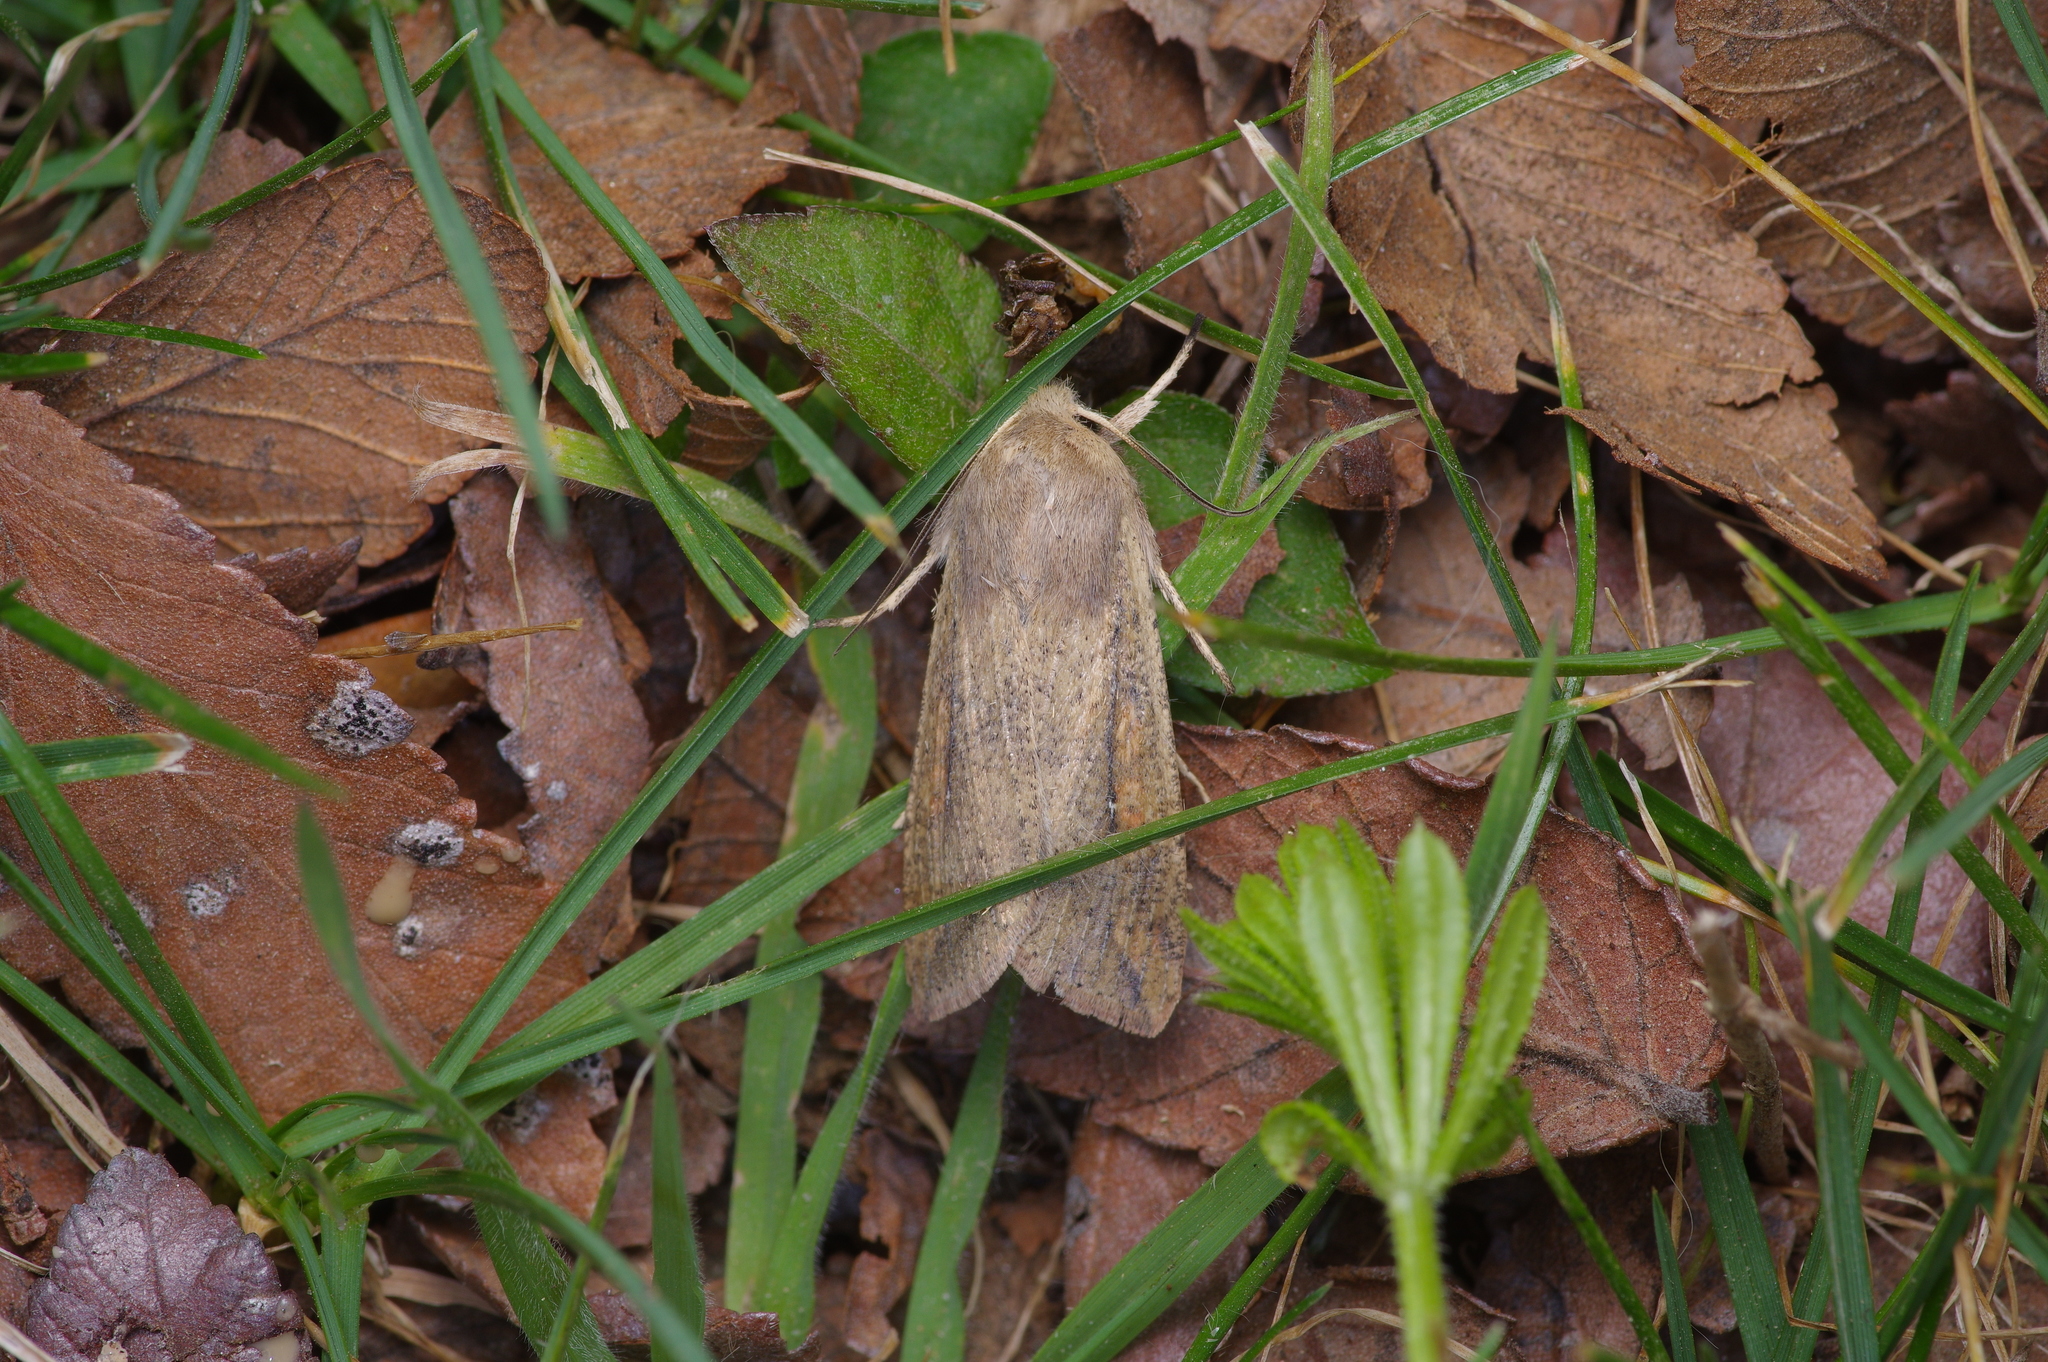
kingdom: Animalia
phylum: Arthropoda
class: Insecta
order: Lepidoptera
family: Noctuidae
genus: Mythimna
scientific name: Mythimna unipuncta
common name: White-speck
